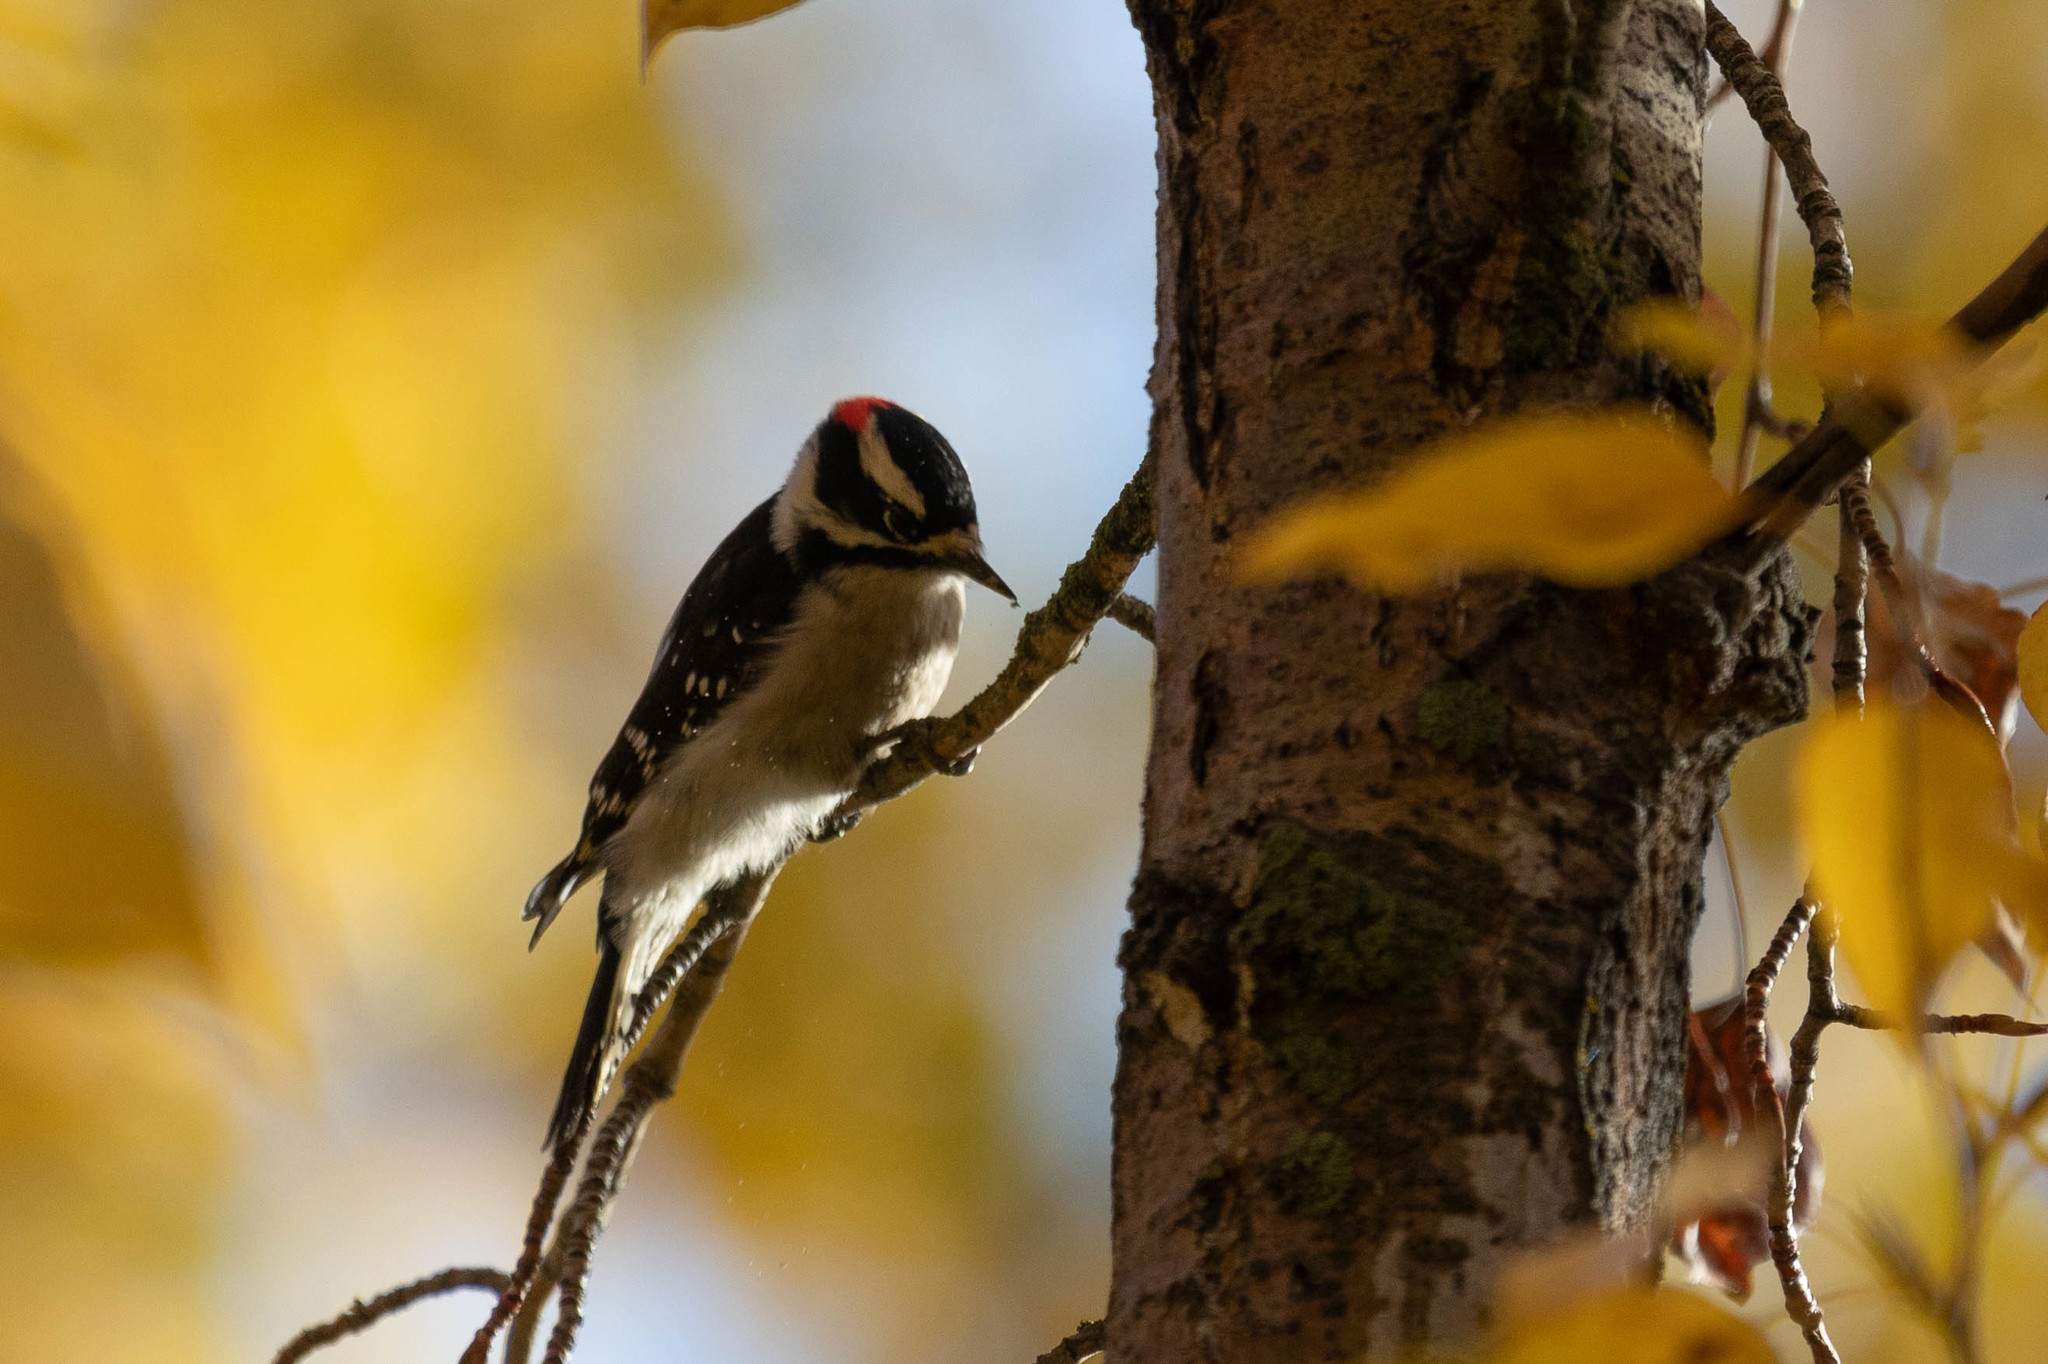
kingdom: Animalia
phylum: Chordata
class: Aves
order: Piciformes
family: Picidae
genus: Dryobates
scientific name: Dryobates pubescens
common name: Downy woodpecker
